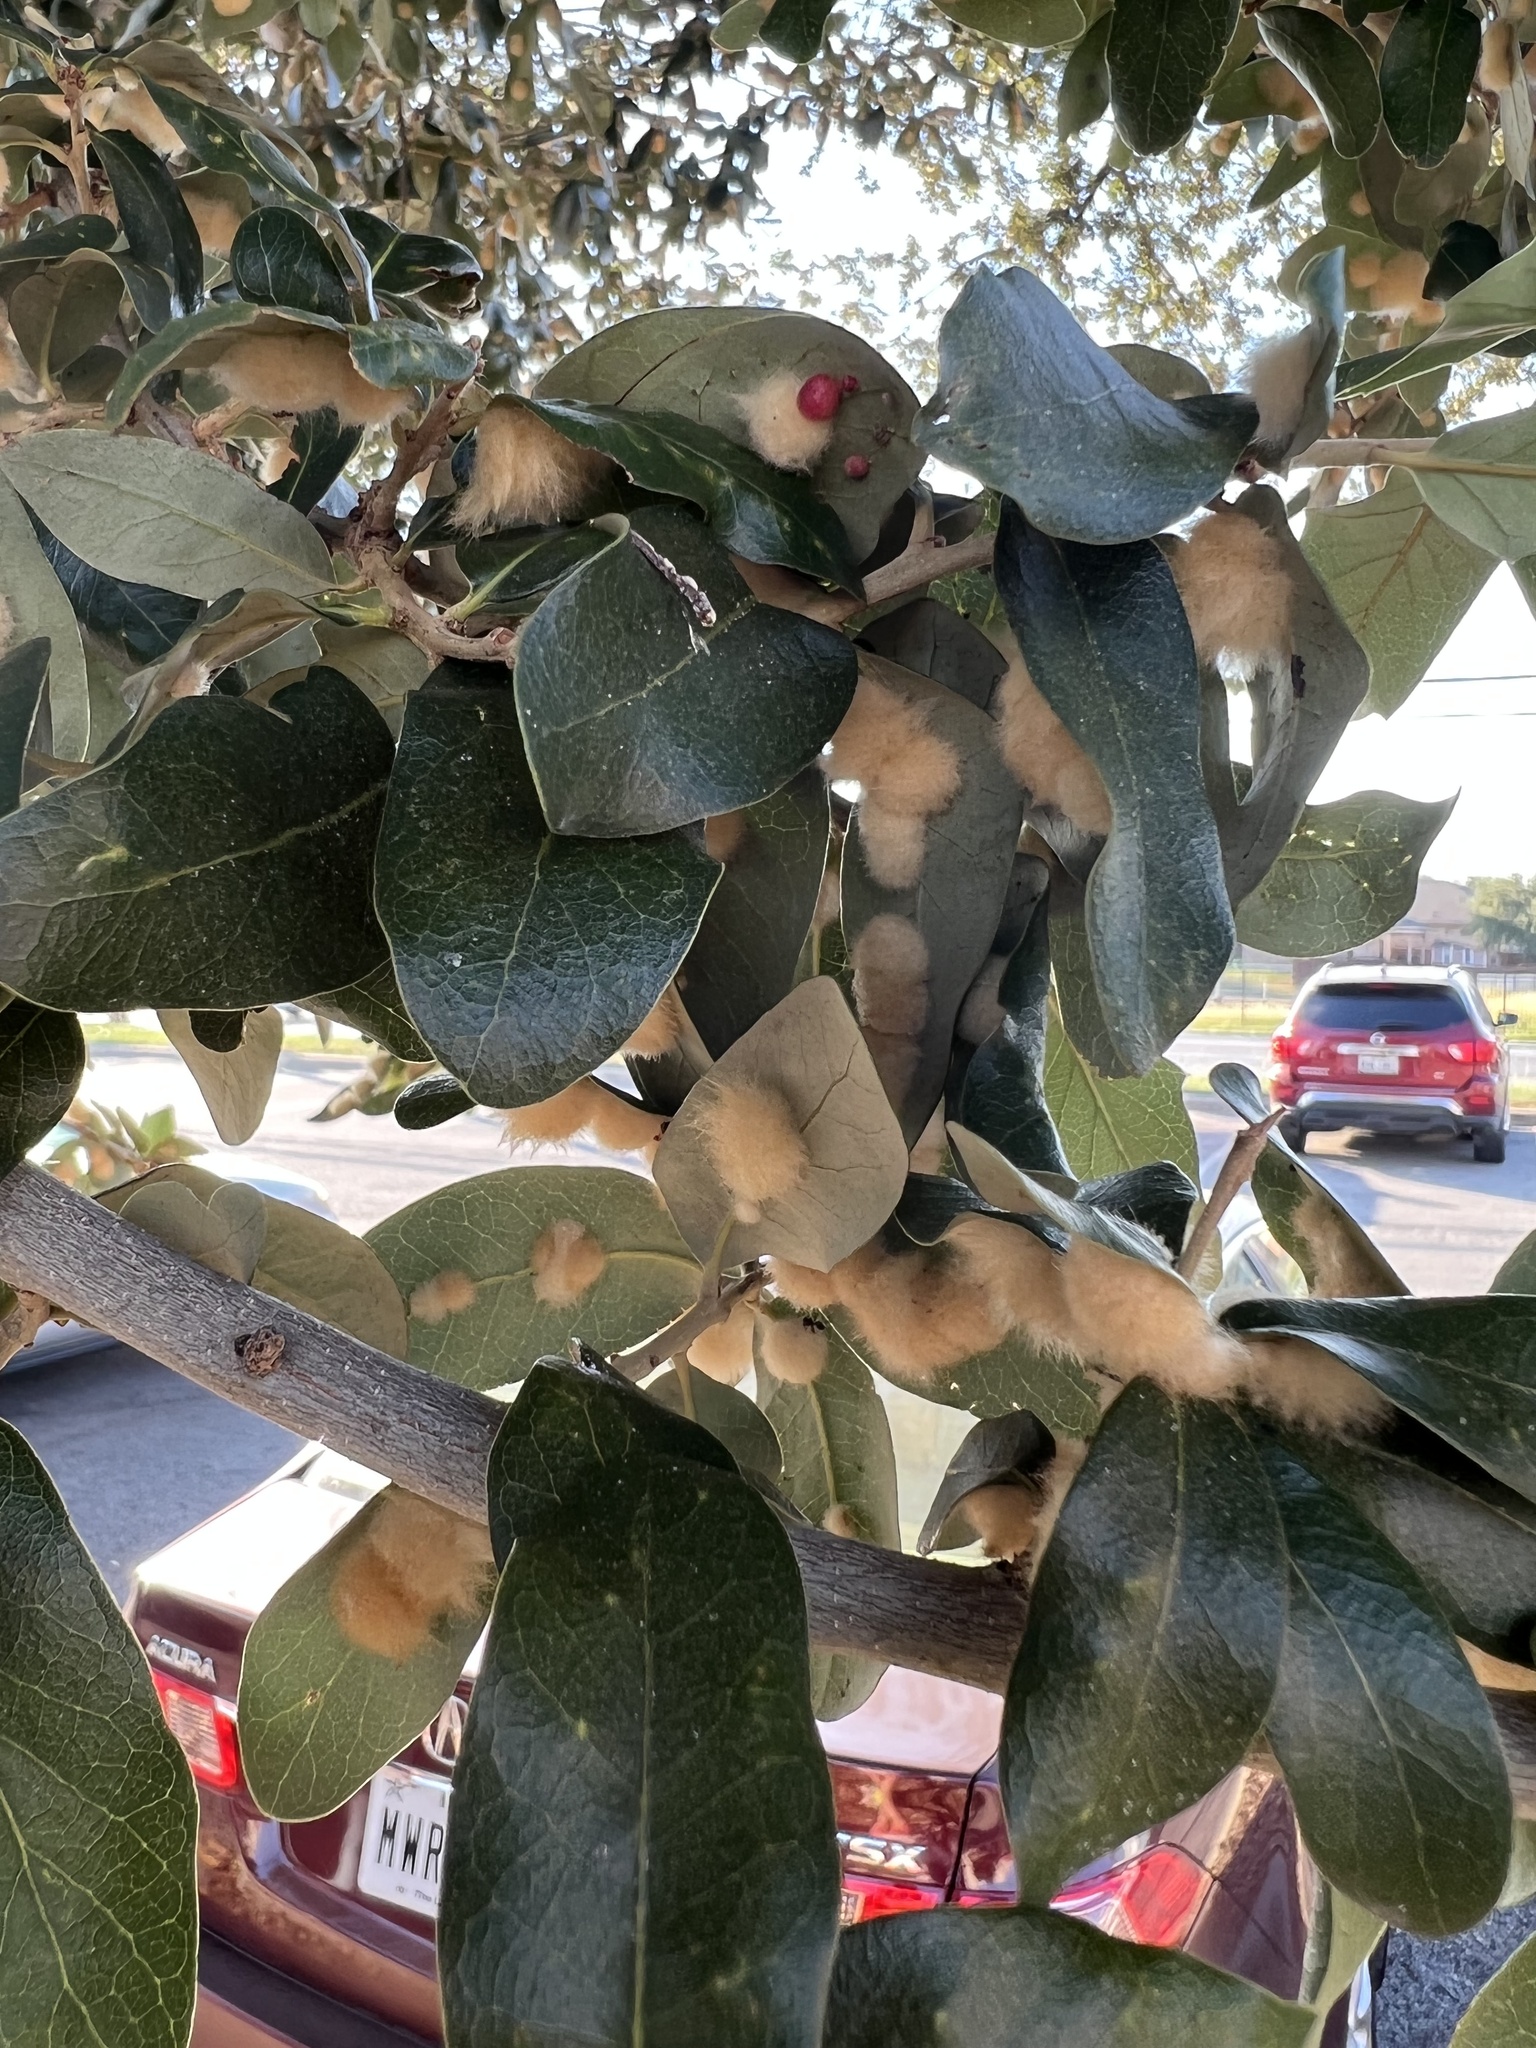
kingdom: Animalia
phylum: Arthropoda
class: Insecta
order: Hymenoptera
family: Cynipidae
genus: Andricus
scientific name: Andricus Druon quercuslanigerum
